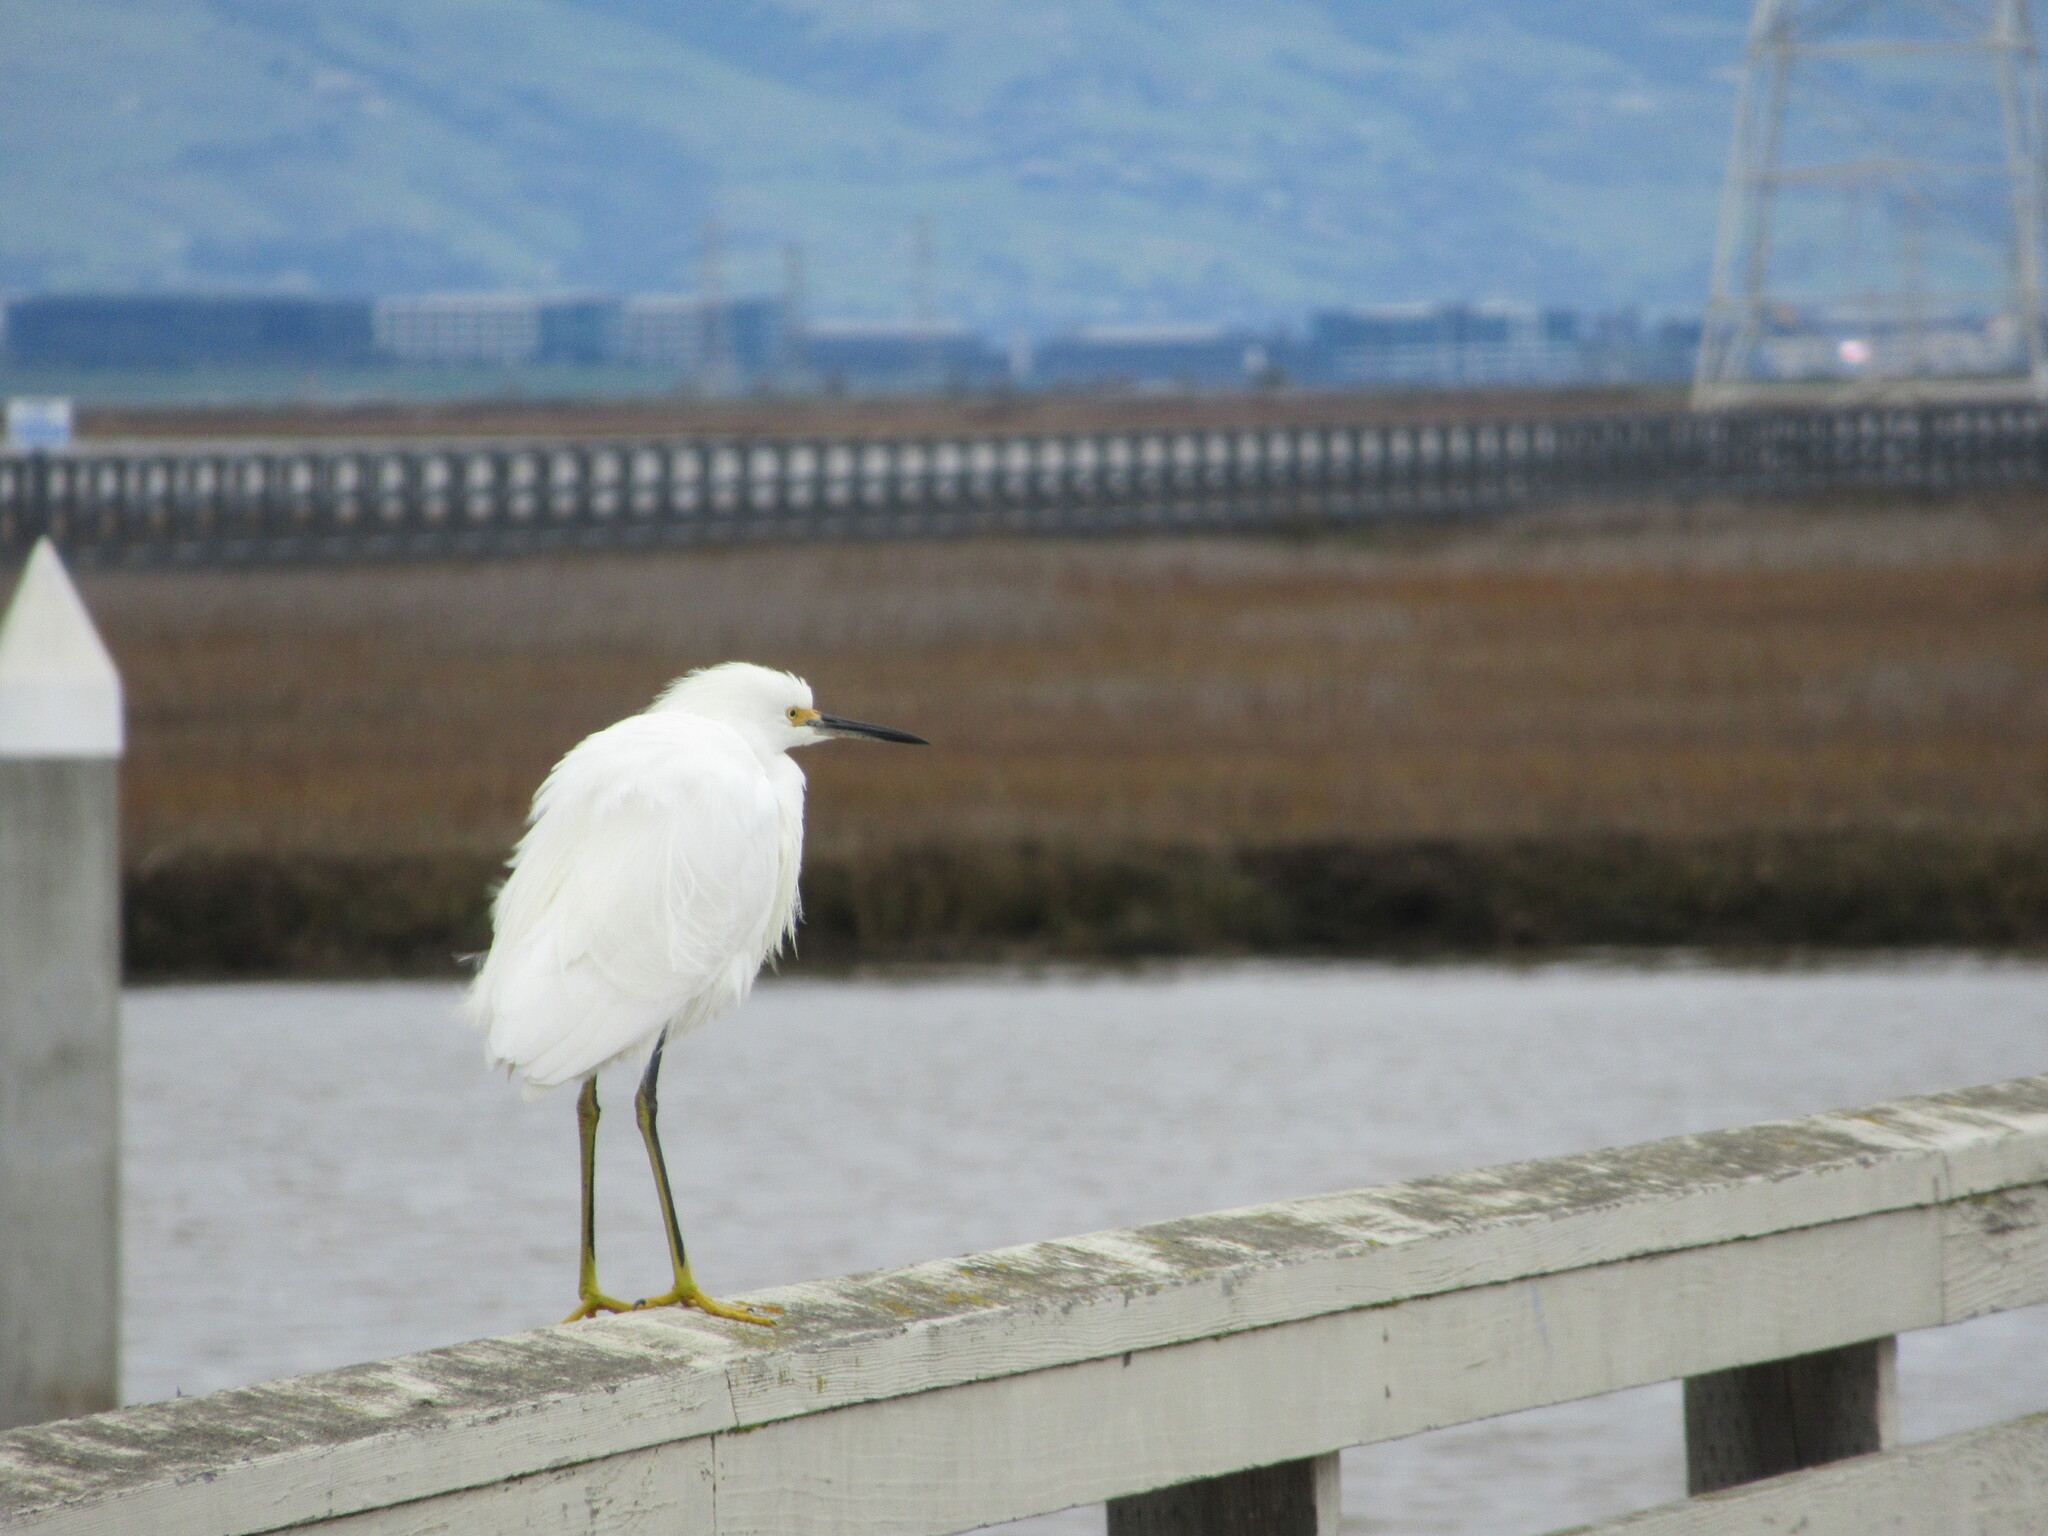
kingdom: Animalia
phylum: Chordata
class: Aves
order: Pelecaniformes
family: Ardeidae
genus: Egretta
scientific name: Egretta thula
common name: Snowy egret
